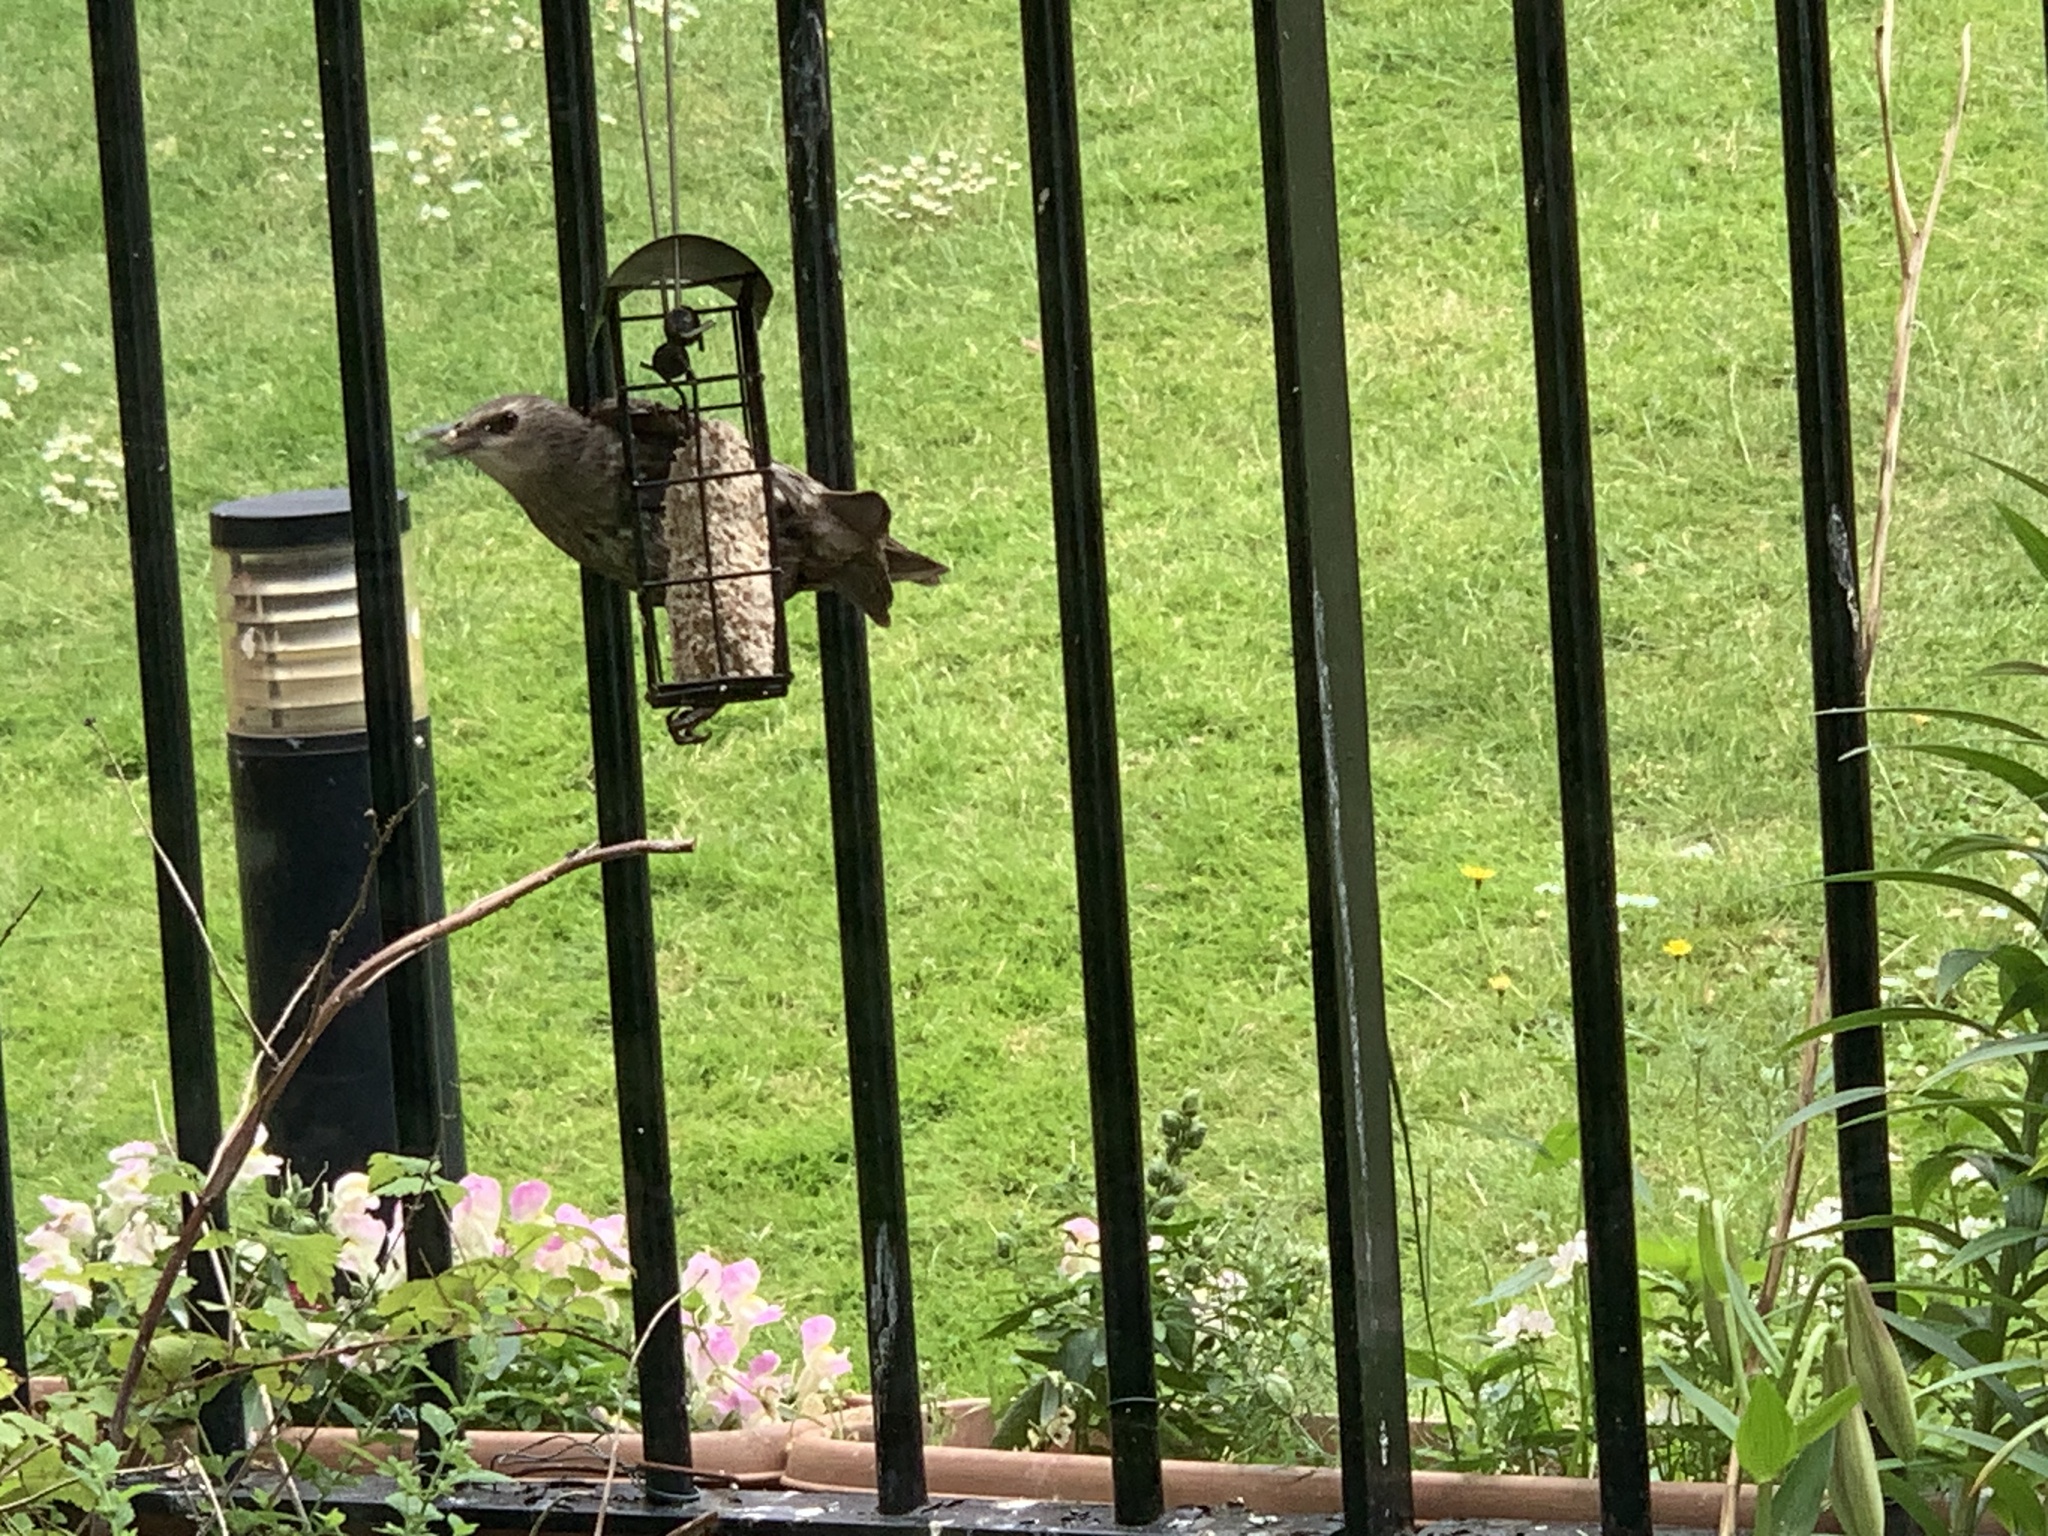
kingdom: Animalia
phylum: Chordata
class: Aves
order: Passeriformes
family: Sturnidae
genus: Sturnus
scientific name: Sturnus vulgaris
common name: Common starling
